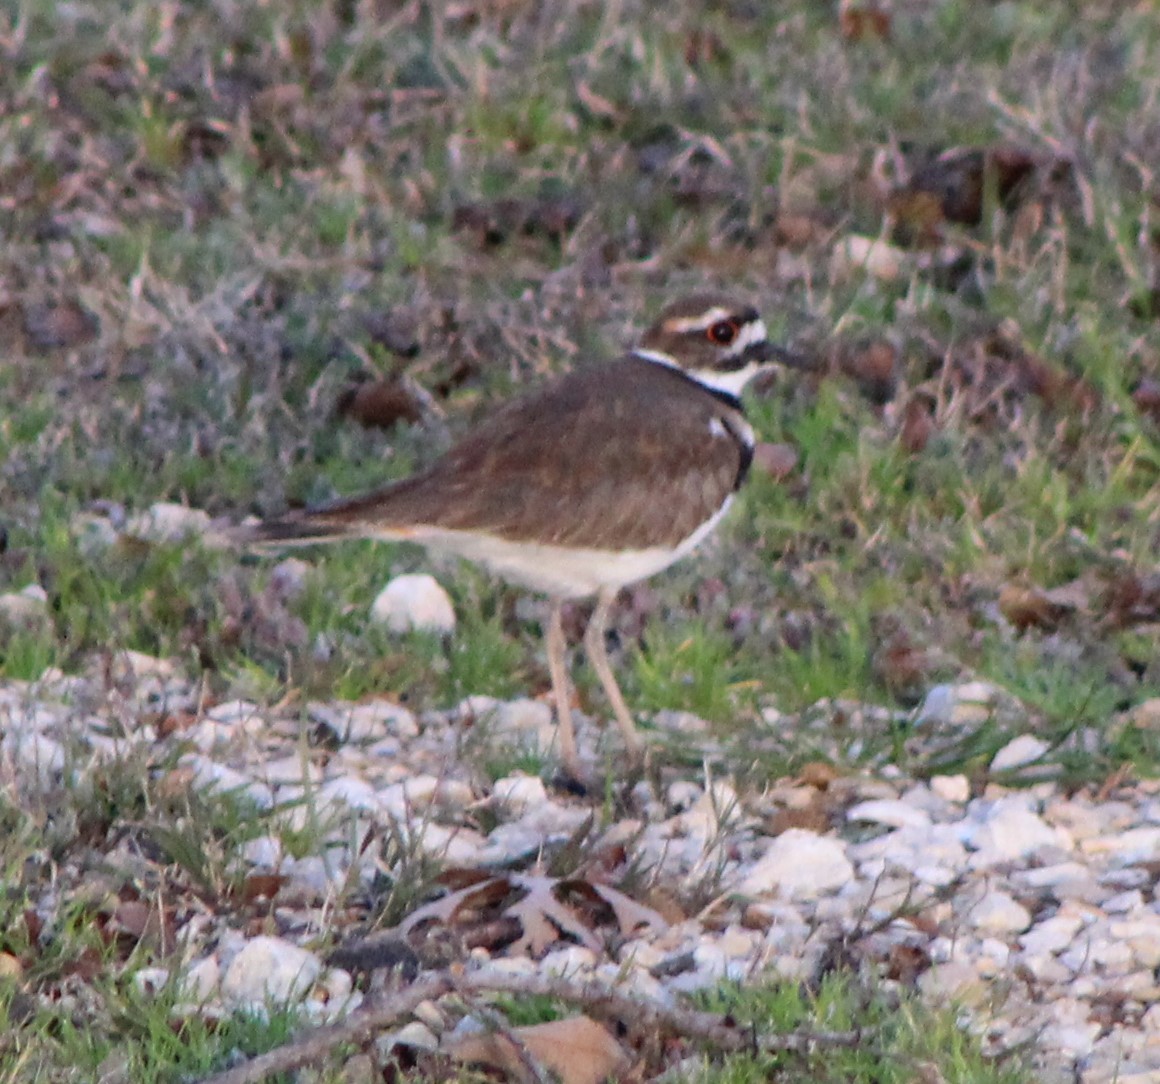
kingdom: Animalia
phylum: Chordata
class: Aves
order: Charadriiformes
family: Charadriidae
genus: Charadrius
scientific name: Charadrius vociferus
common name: Killdeer
